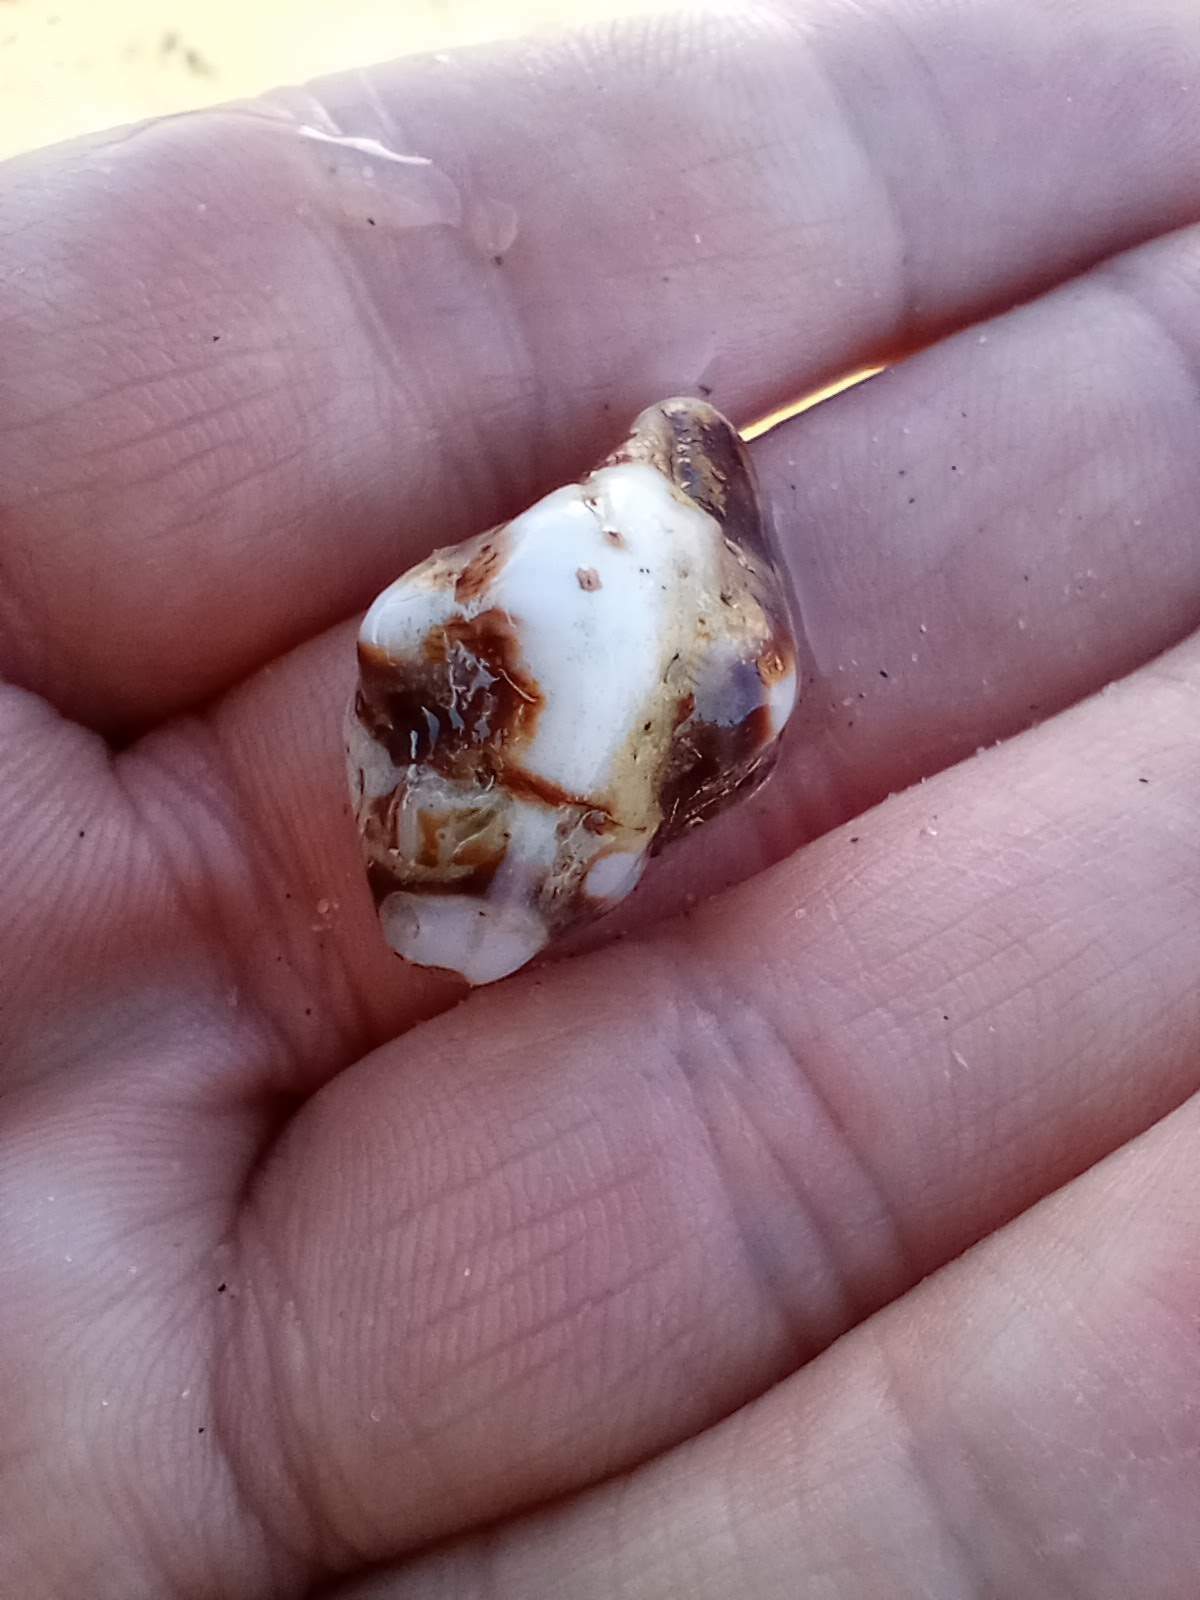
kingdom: Animalia
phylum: Mollusca
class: Gastropoda
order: Neogastropoda
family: Muricidae
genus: Ceratostoma
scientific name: Ceratostoma nuttalli
